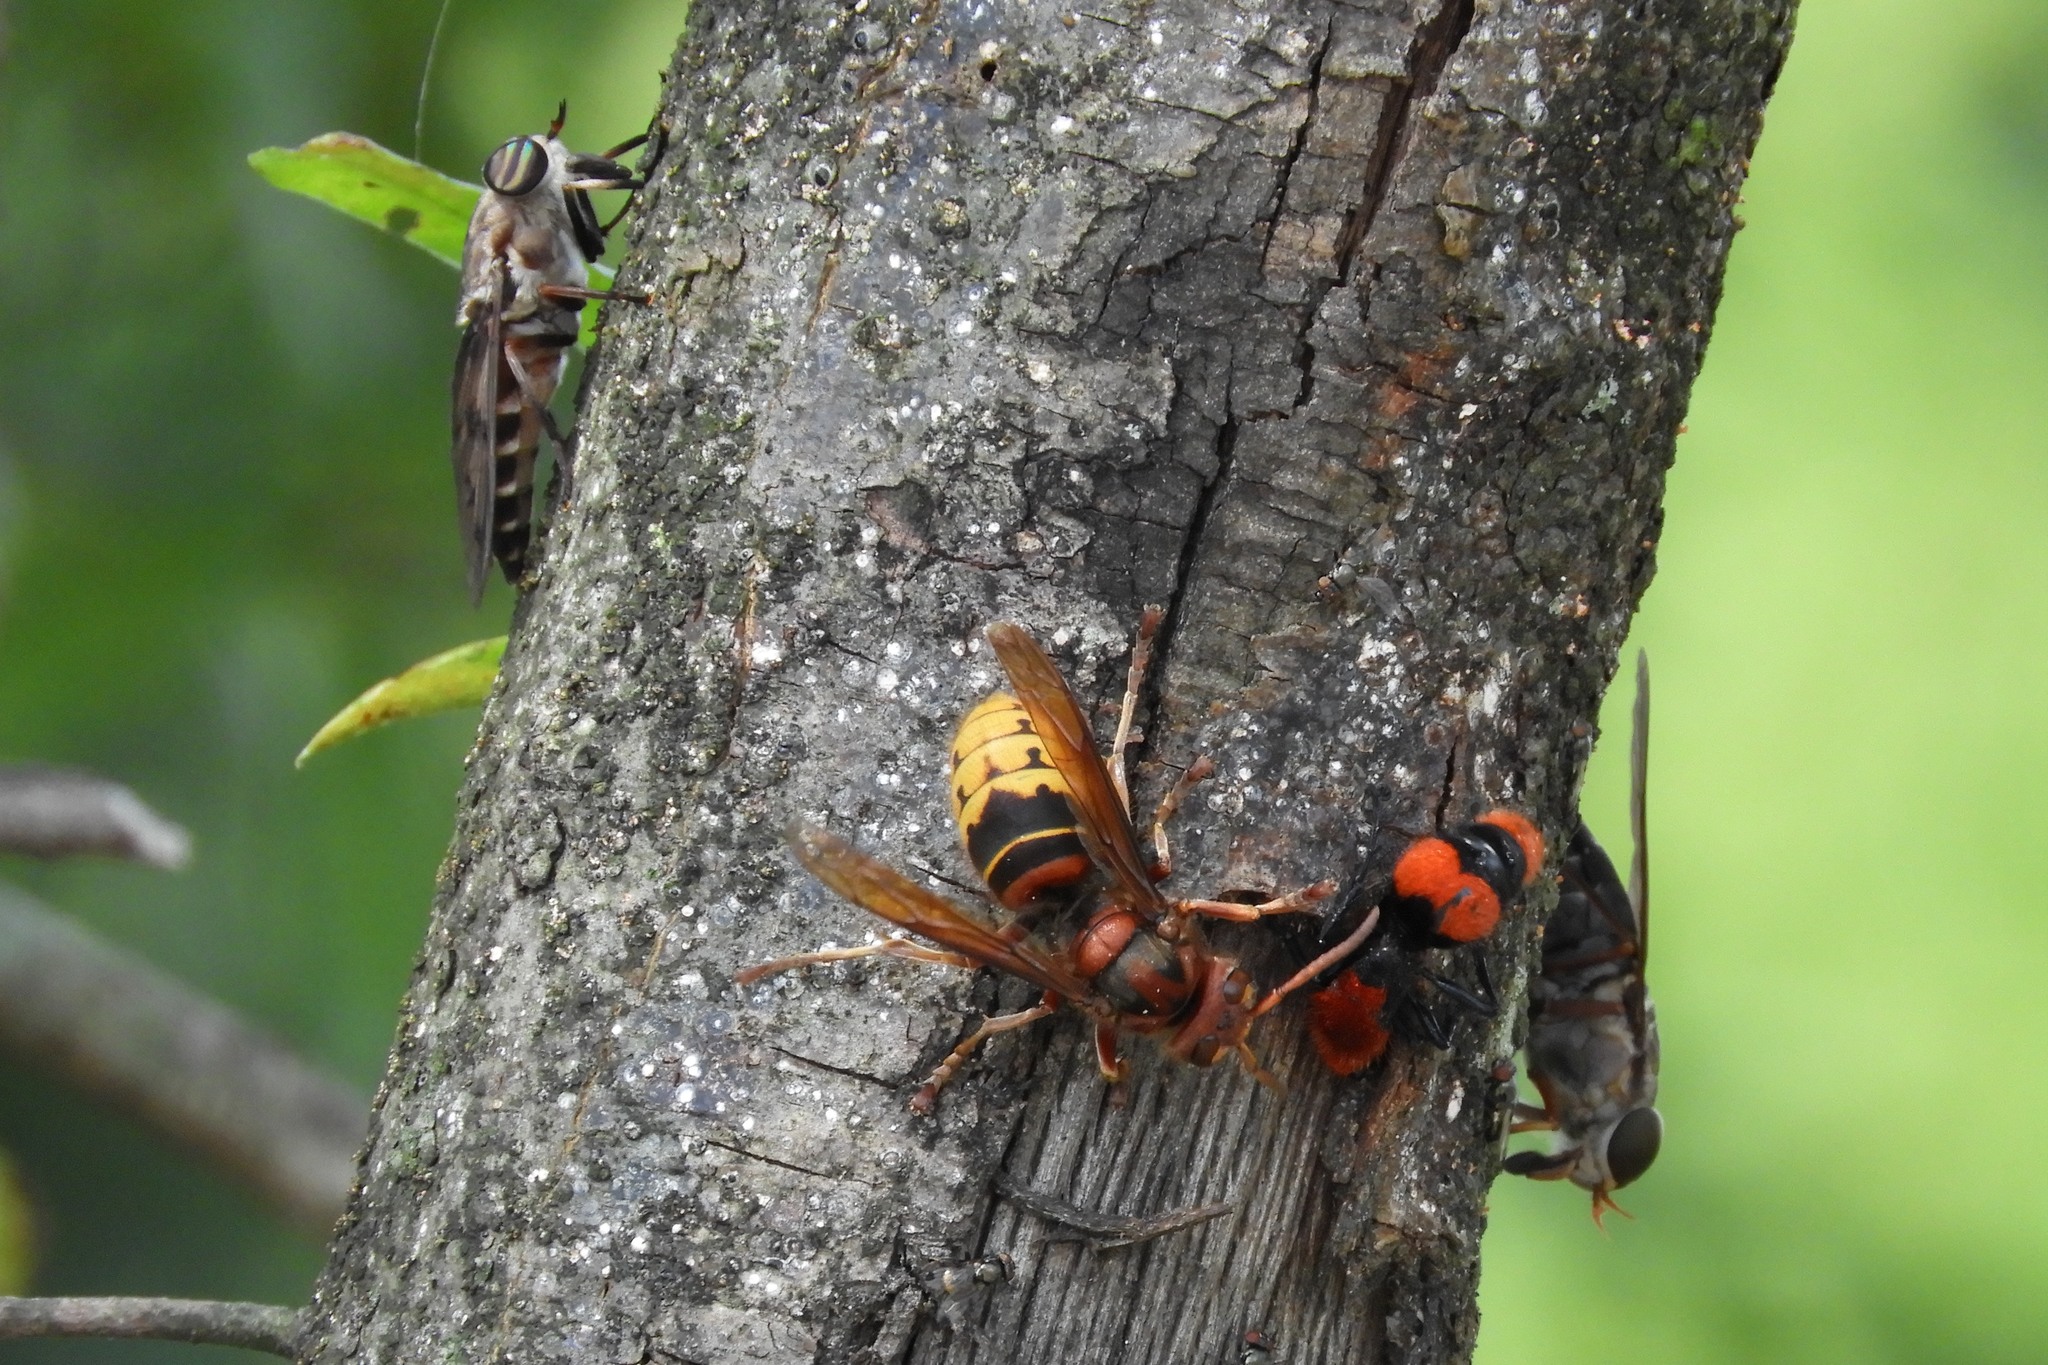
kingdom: Animalia
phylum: Arthropoda
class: Insecta
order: Hymenoptera
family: Vespidae
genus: Vespa
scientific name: Vespa crabro
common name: Hornet
